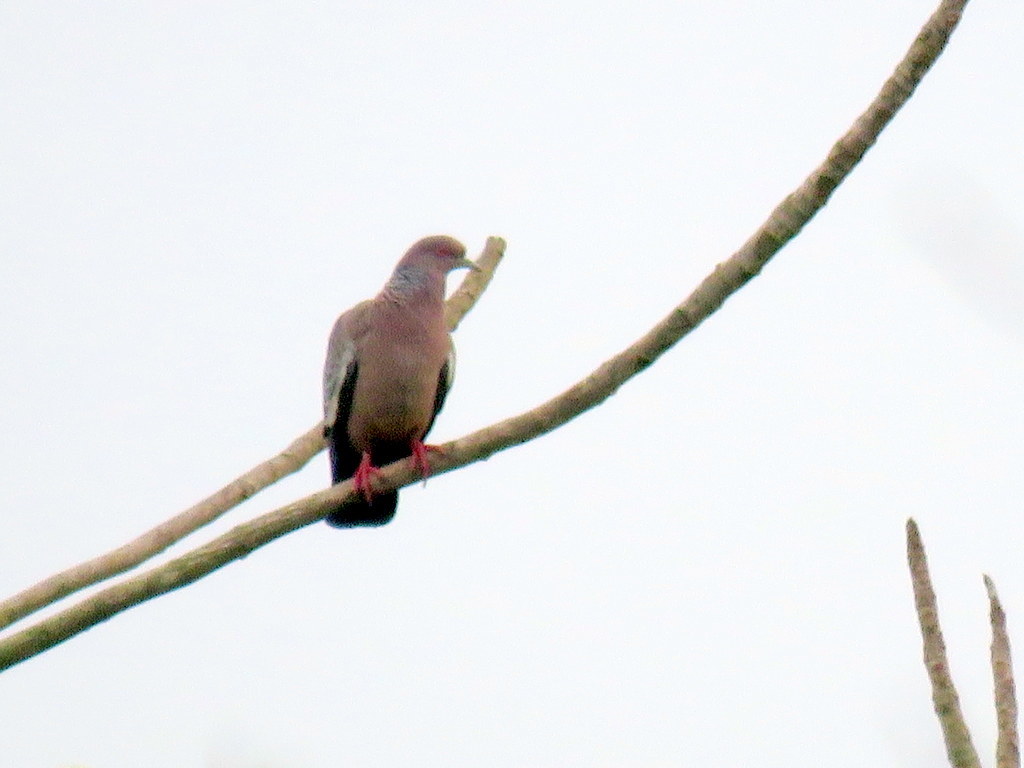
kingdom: Animalia
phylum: Chordata
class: Aves
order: Columbiformes
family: Columbidae
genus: Patagioenas
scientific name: Patagioenas picazuro
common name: Picazuro pigeon
